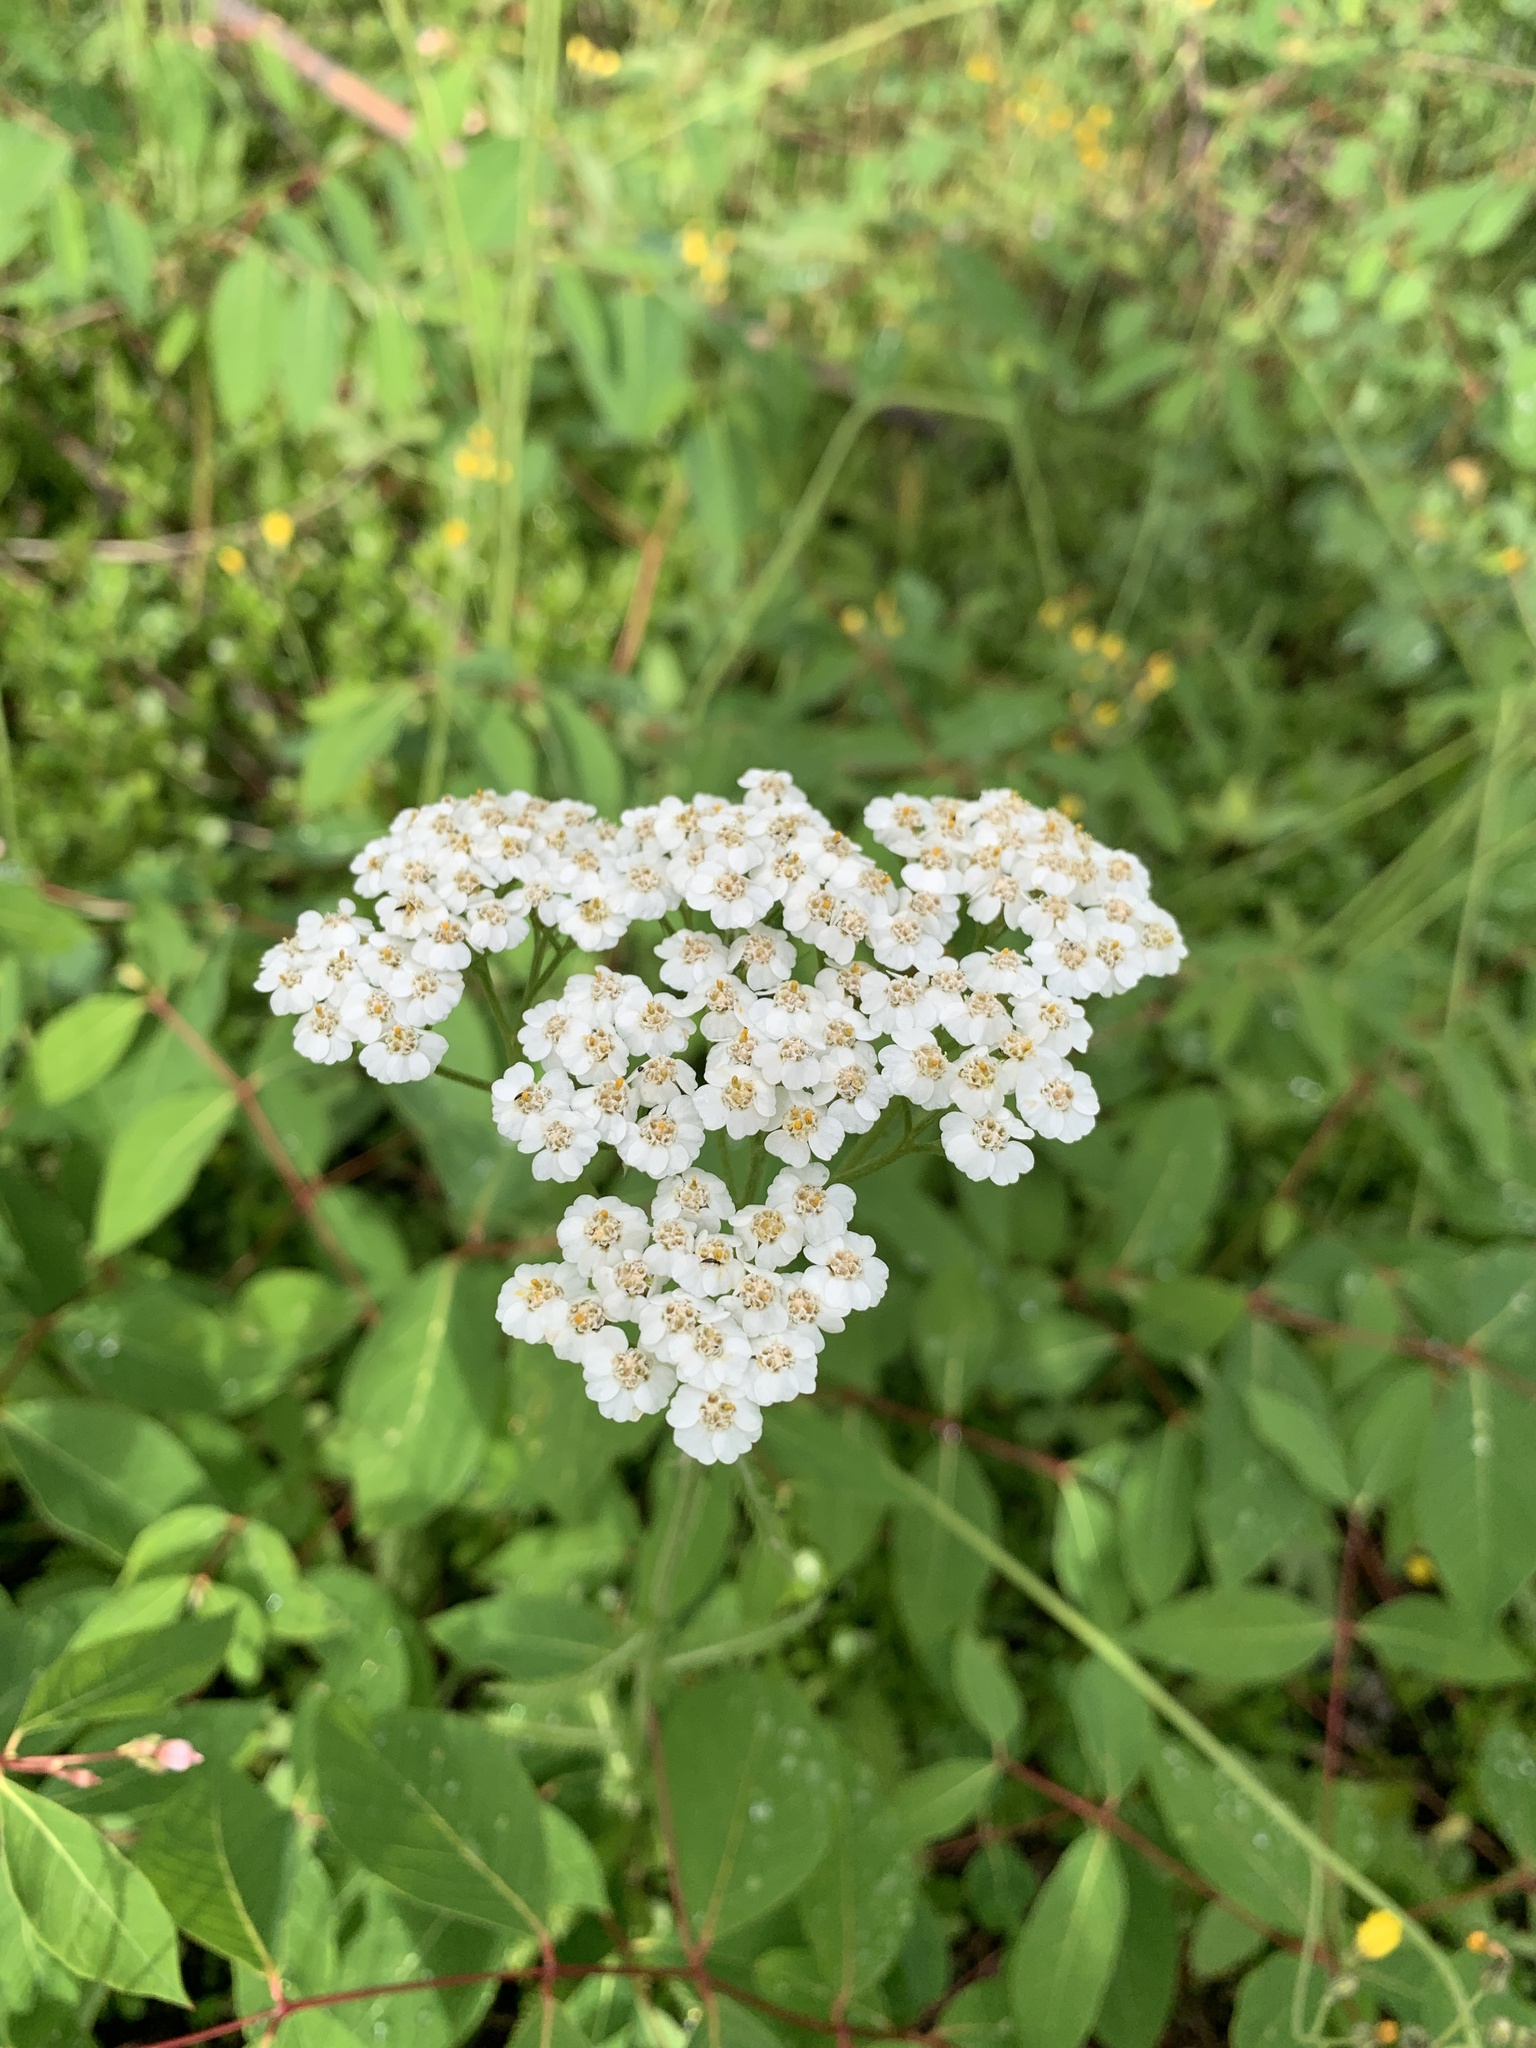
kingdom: Plantae
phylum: Tracheophyta
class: Magnoliopsida
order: Asterales
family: Asteraceae
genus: Achillea
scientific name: Achillea millefolium
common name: Yarrow
